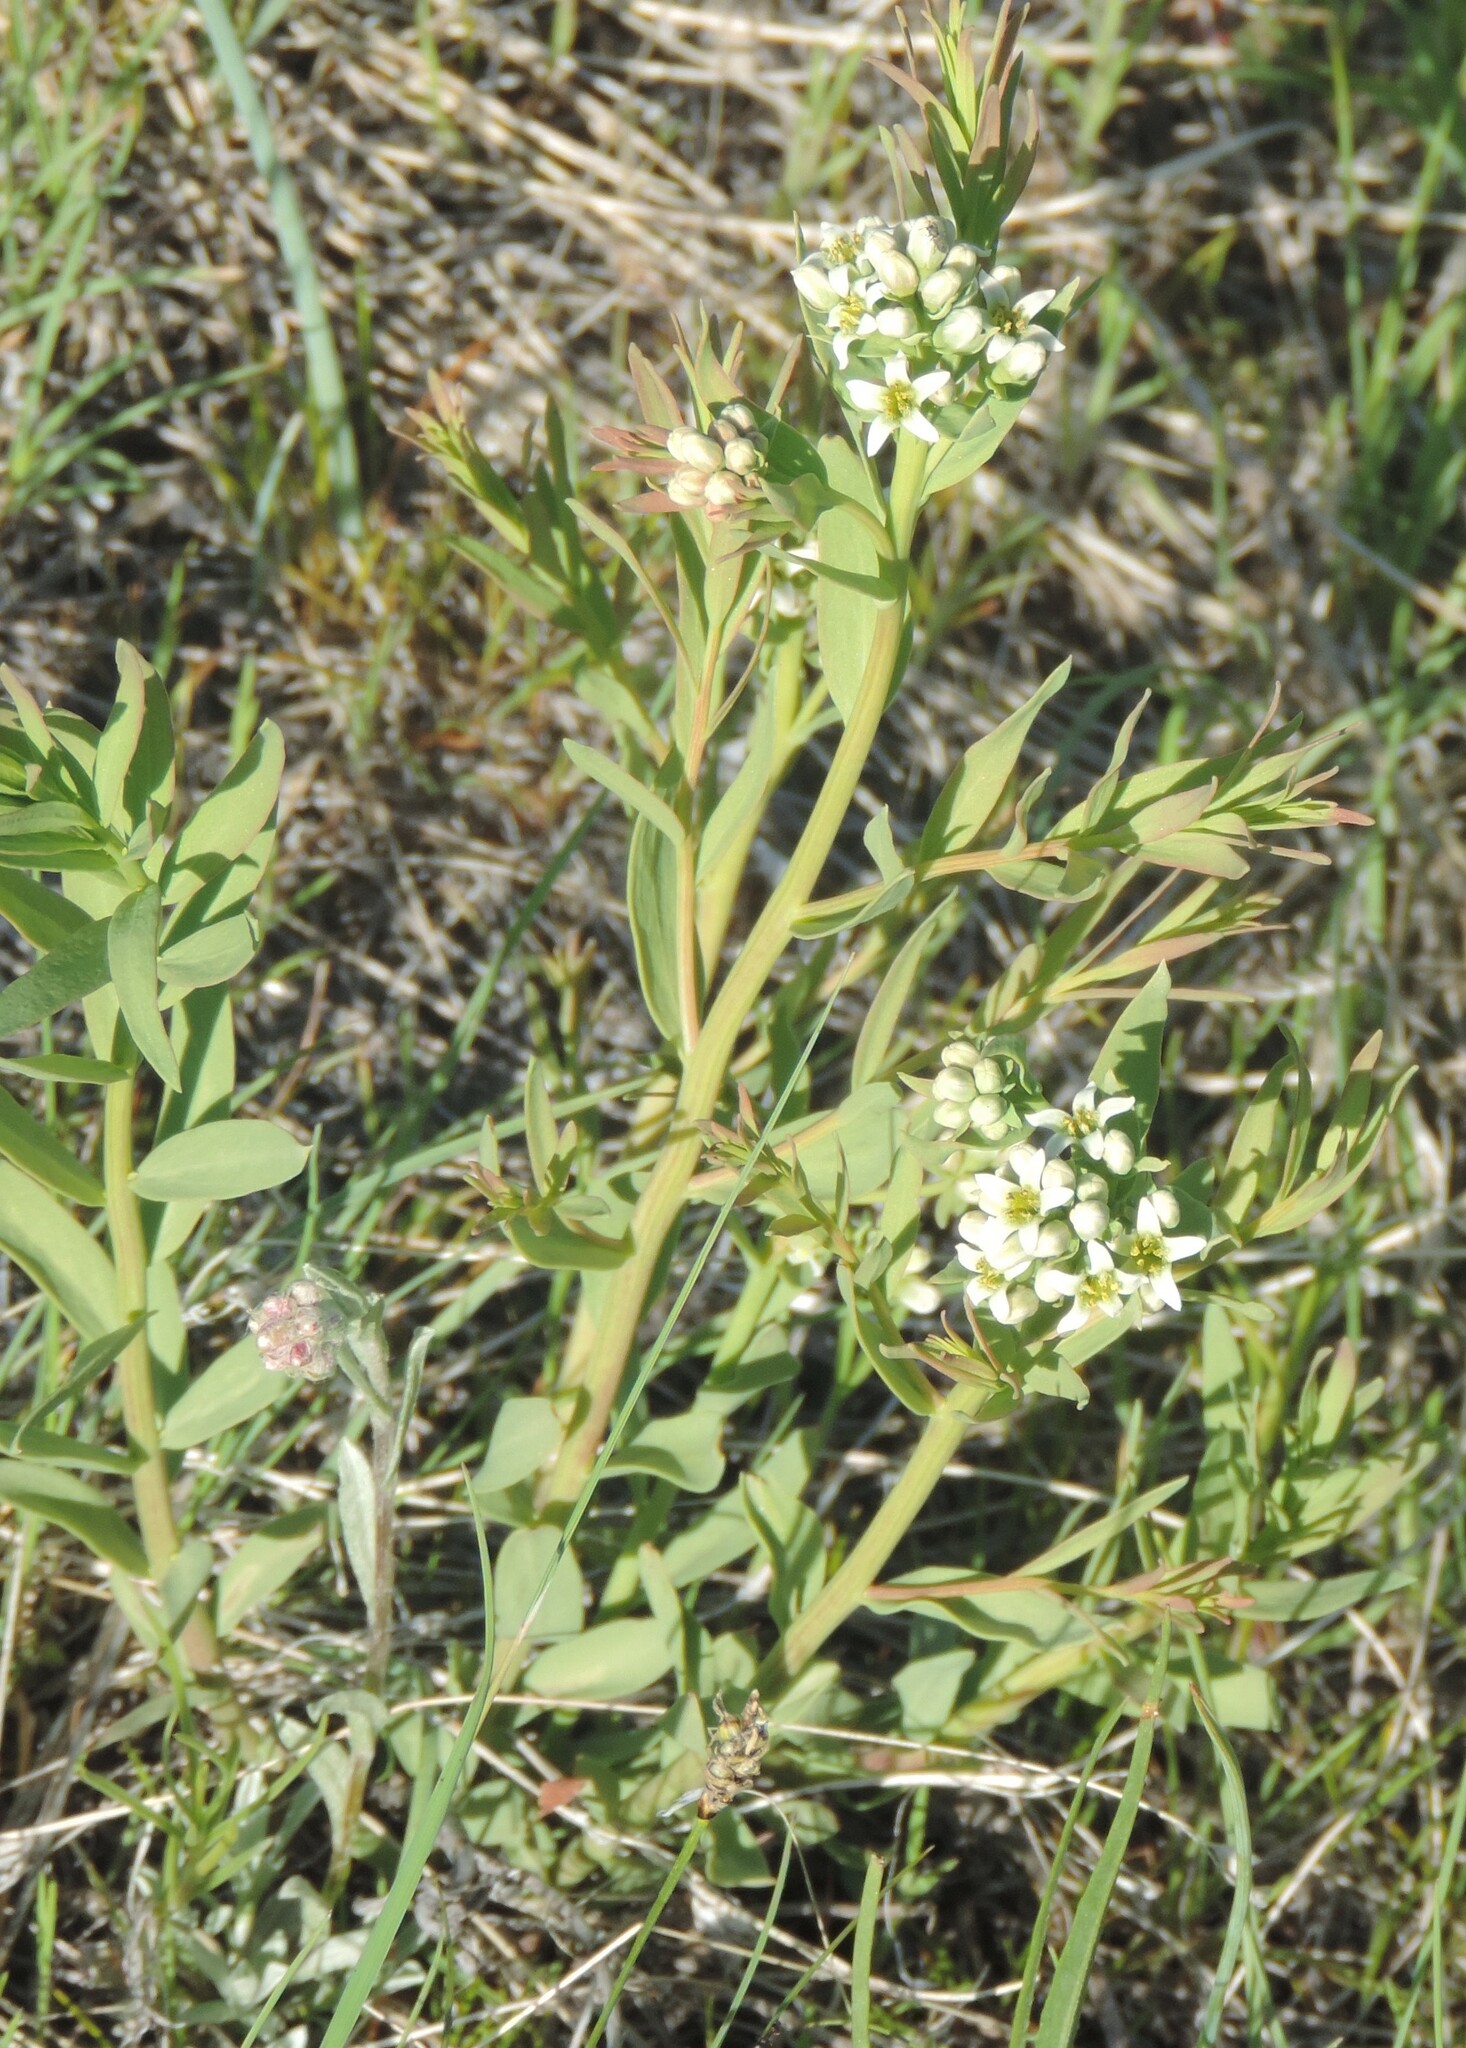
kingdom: Plantae
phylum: Tracheophyta
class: Magnoliopsida
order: Santalales
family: Comandraceae
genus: Comandra
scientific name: Comandra umbellata
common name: Bastard toadflax
